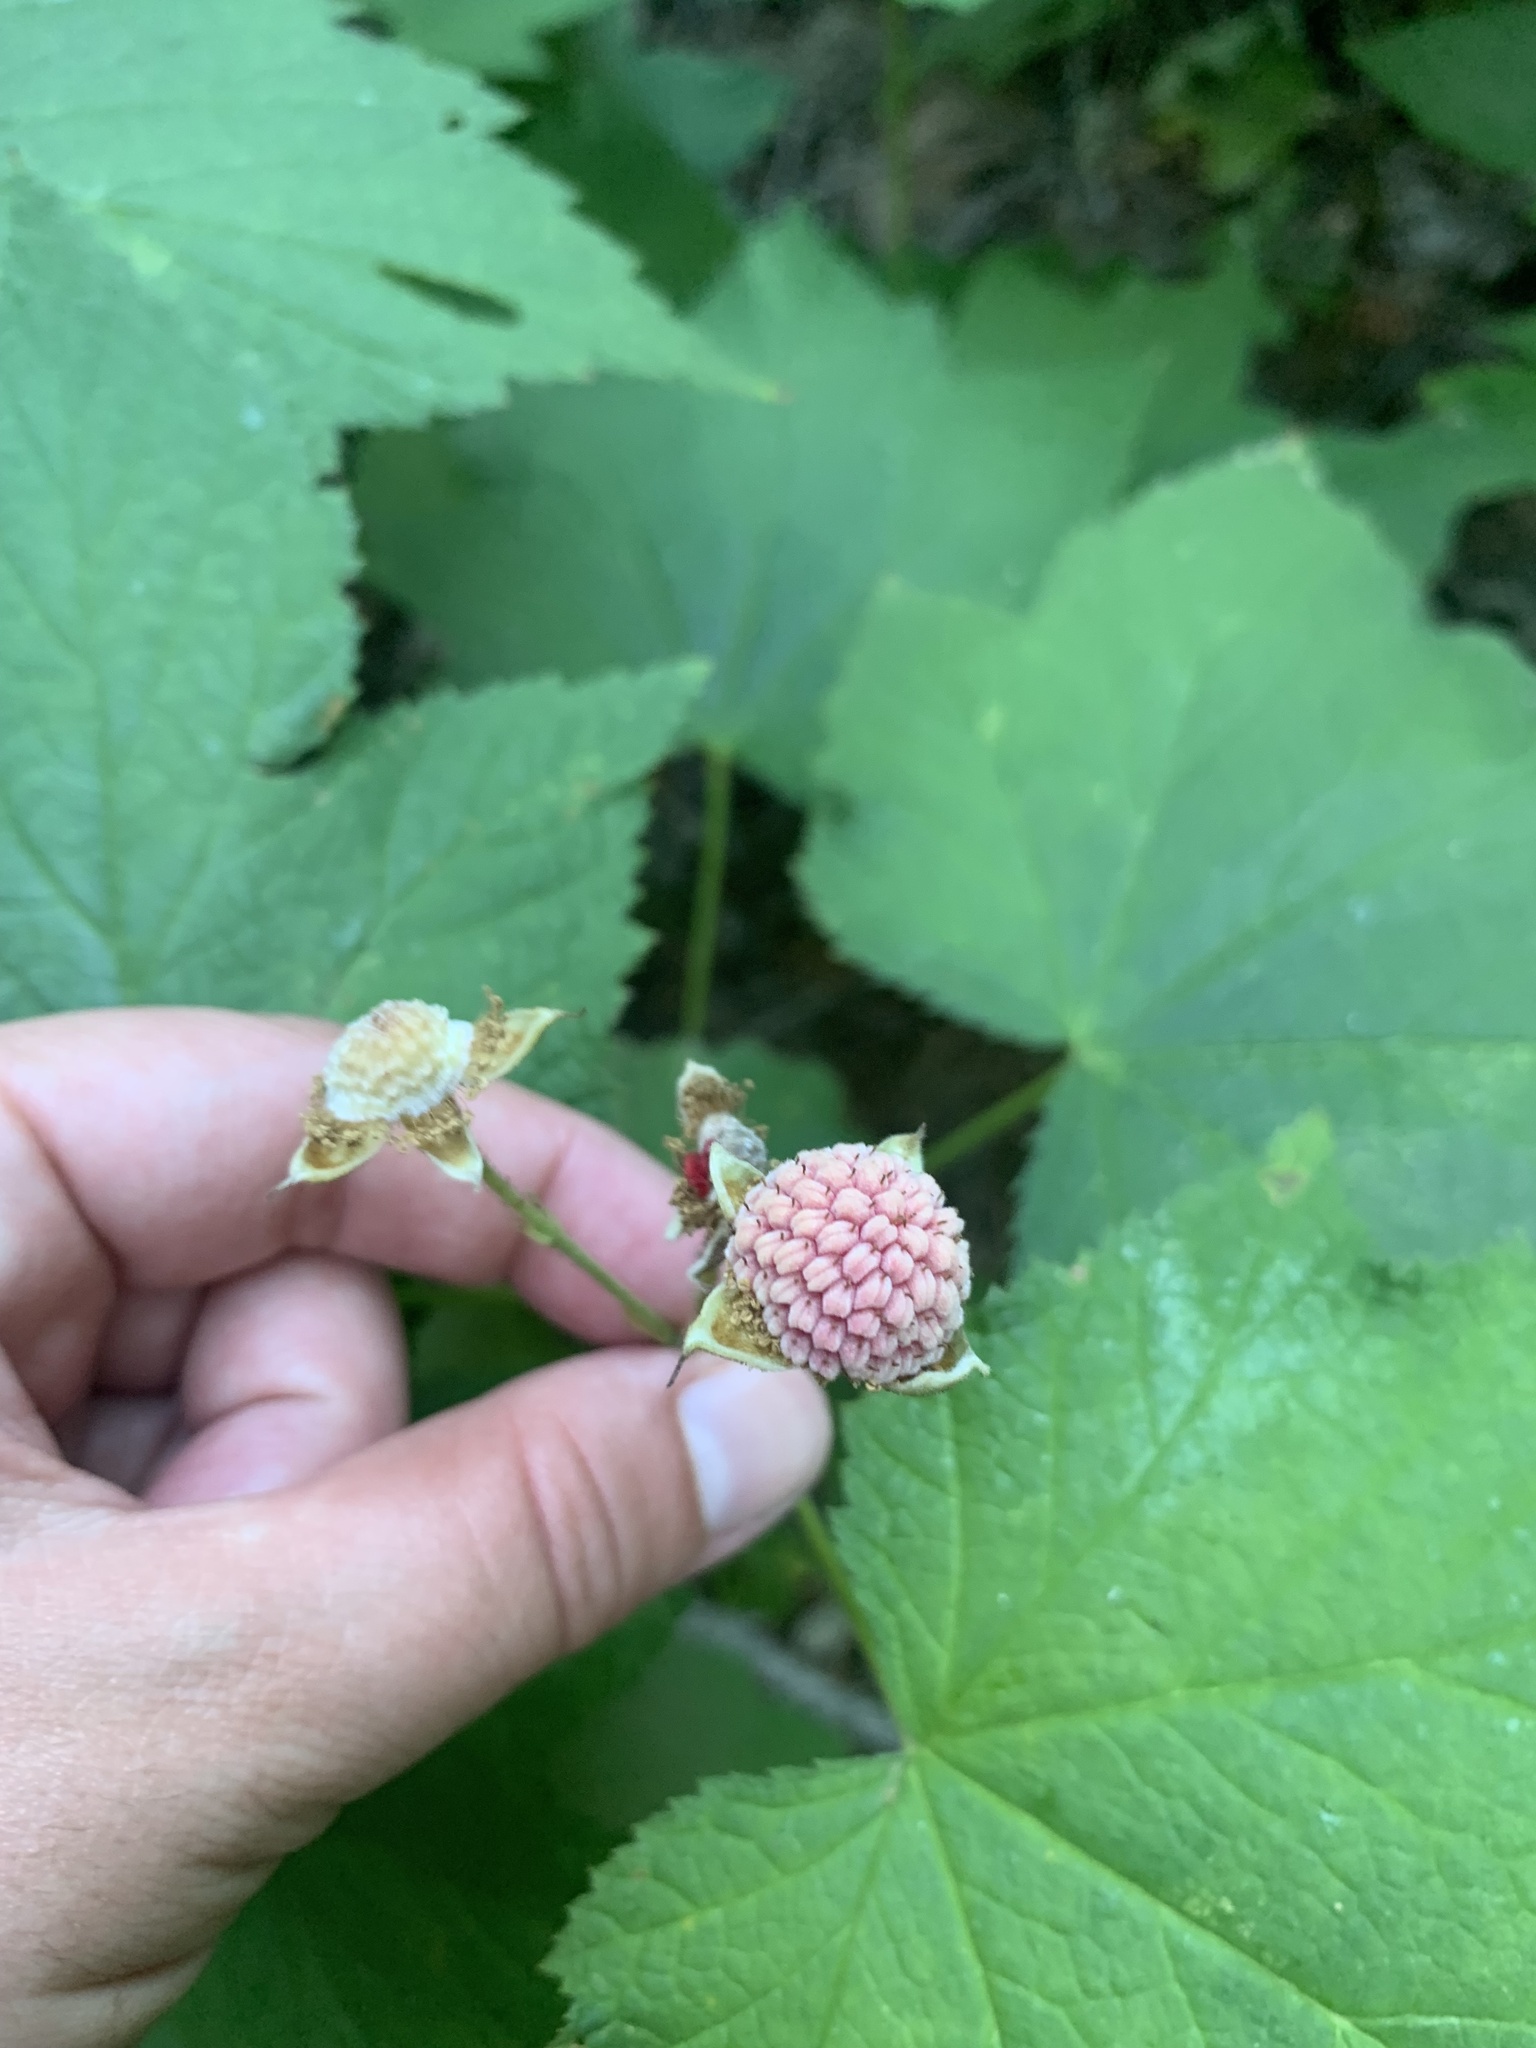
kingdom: Plantae
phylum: Tracheophyta
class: Magnoliopsida
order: Rosales
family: Rosaceae
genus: Rubus
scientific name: Rubus parviflorus
